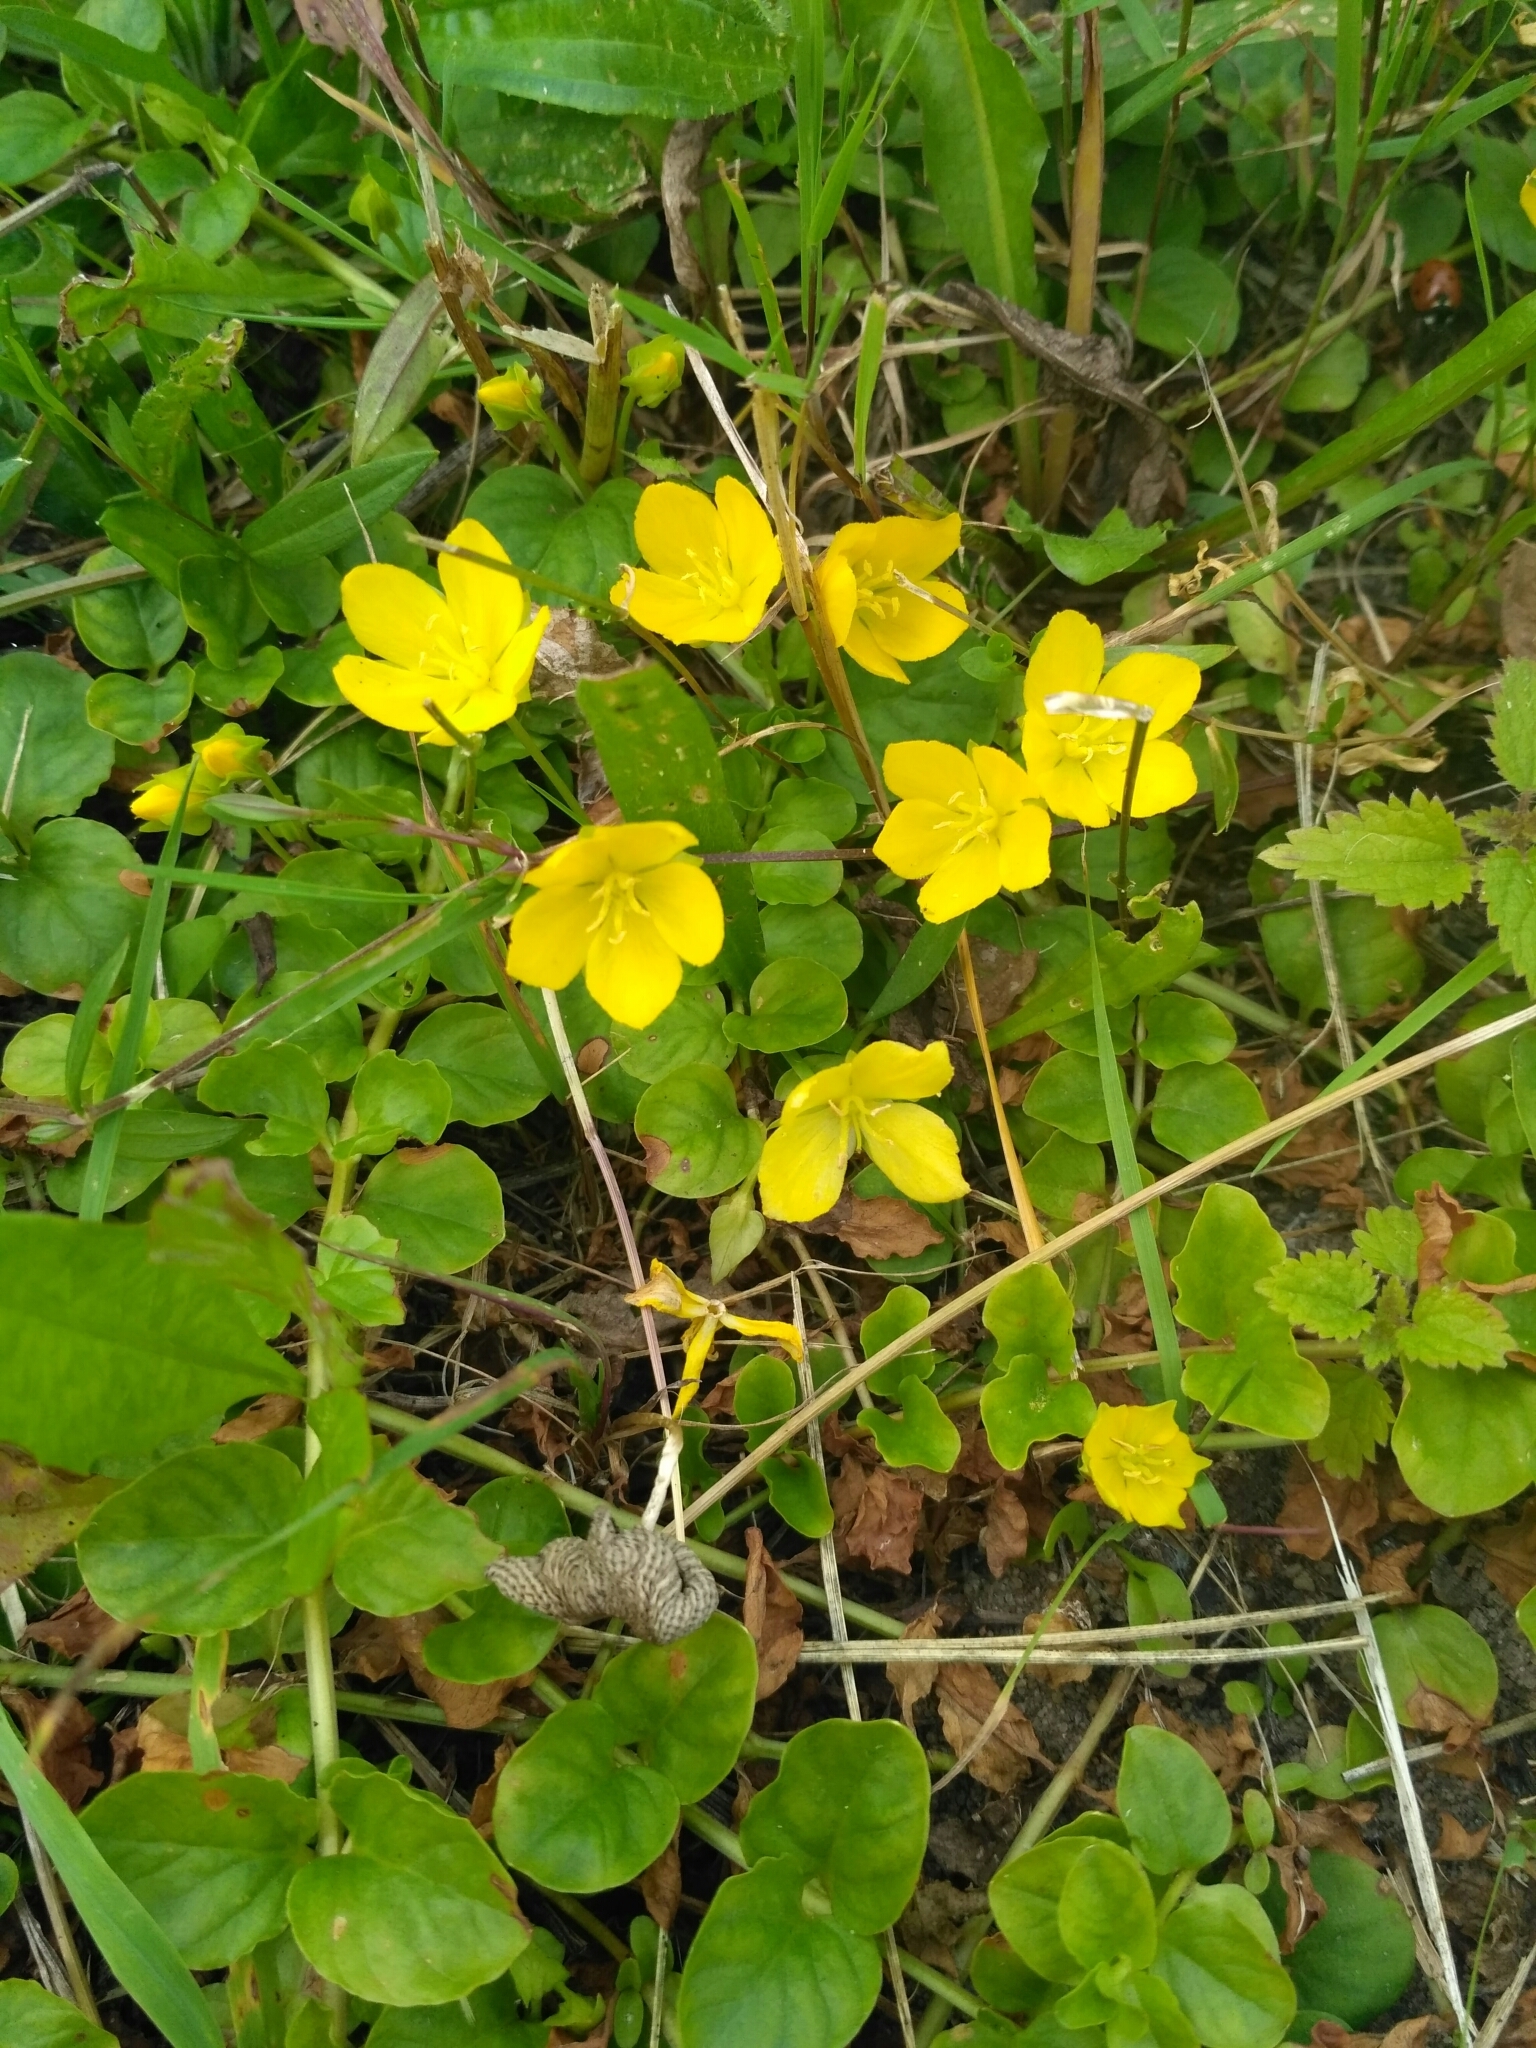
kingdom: Plantae
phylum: Tracheophyta
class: Magnoliopsida
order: Ericales
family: Primulaceae
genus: Lysimachia
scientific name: Lysimachia nummularia
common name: Moneywort
